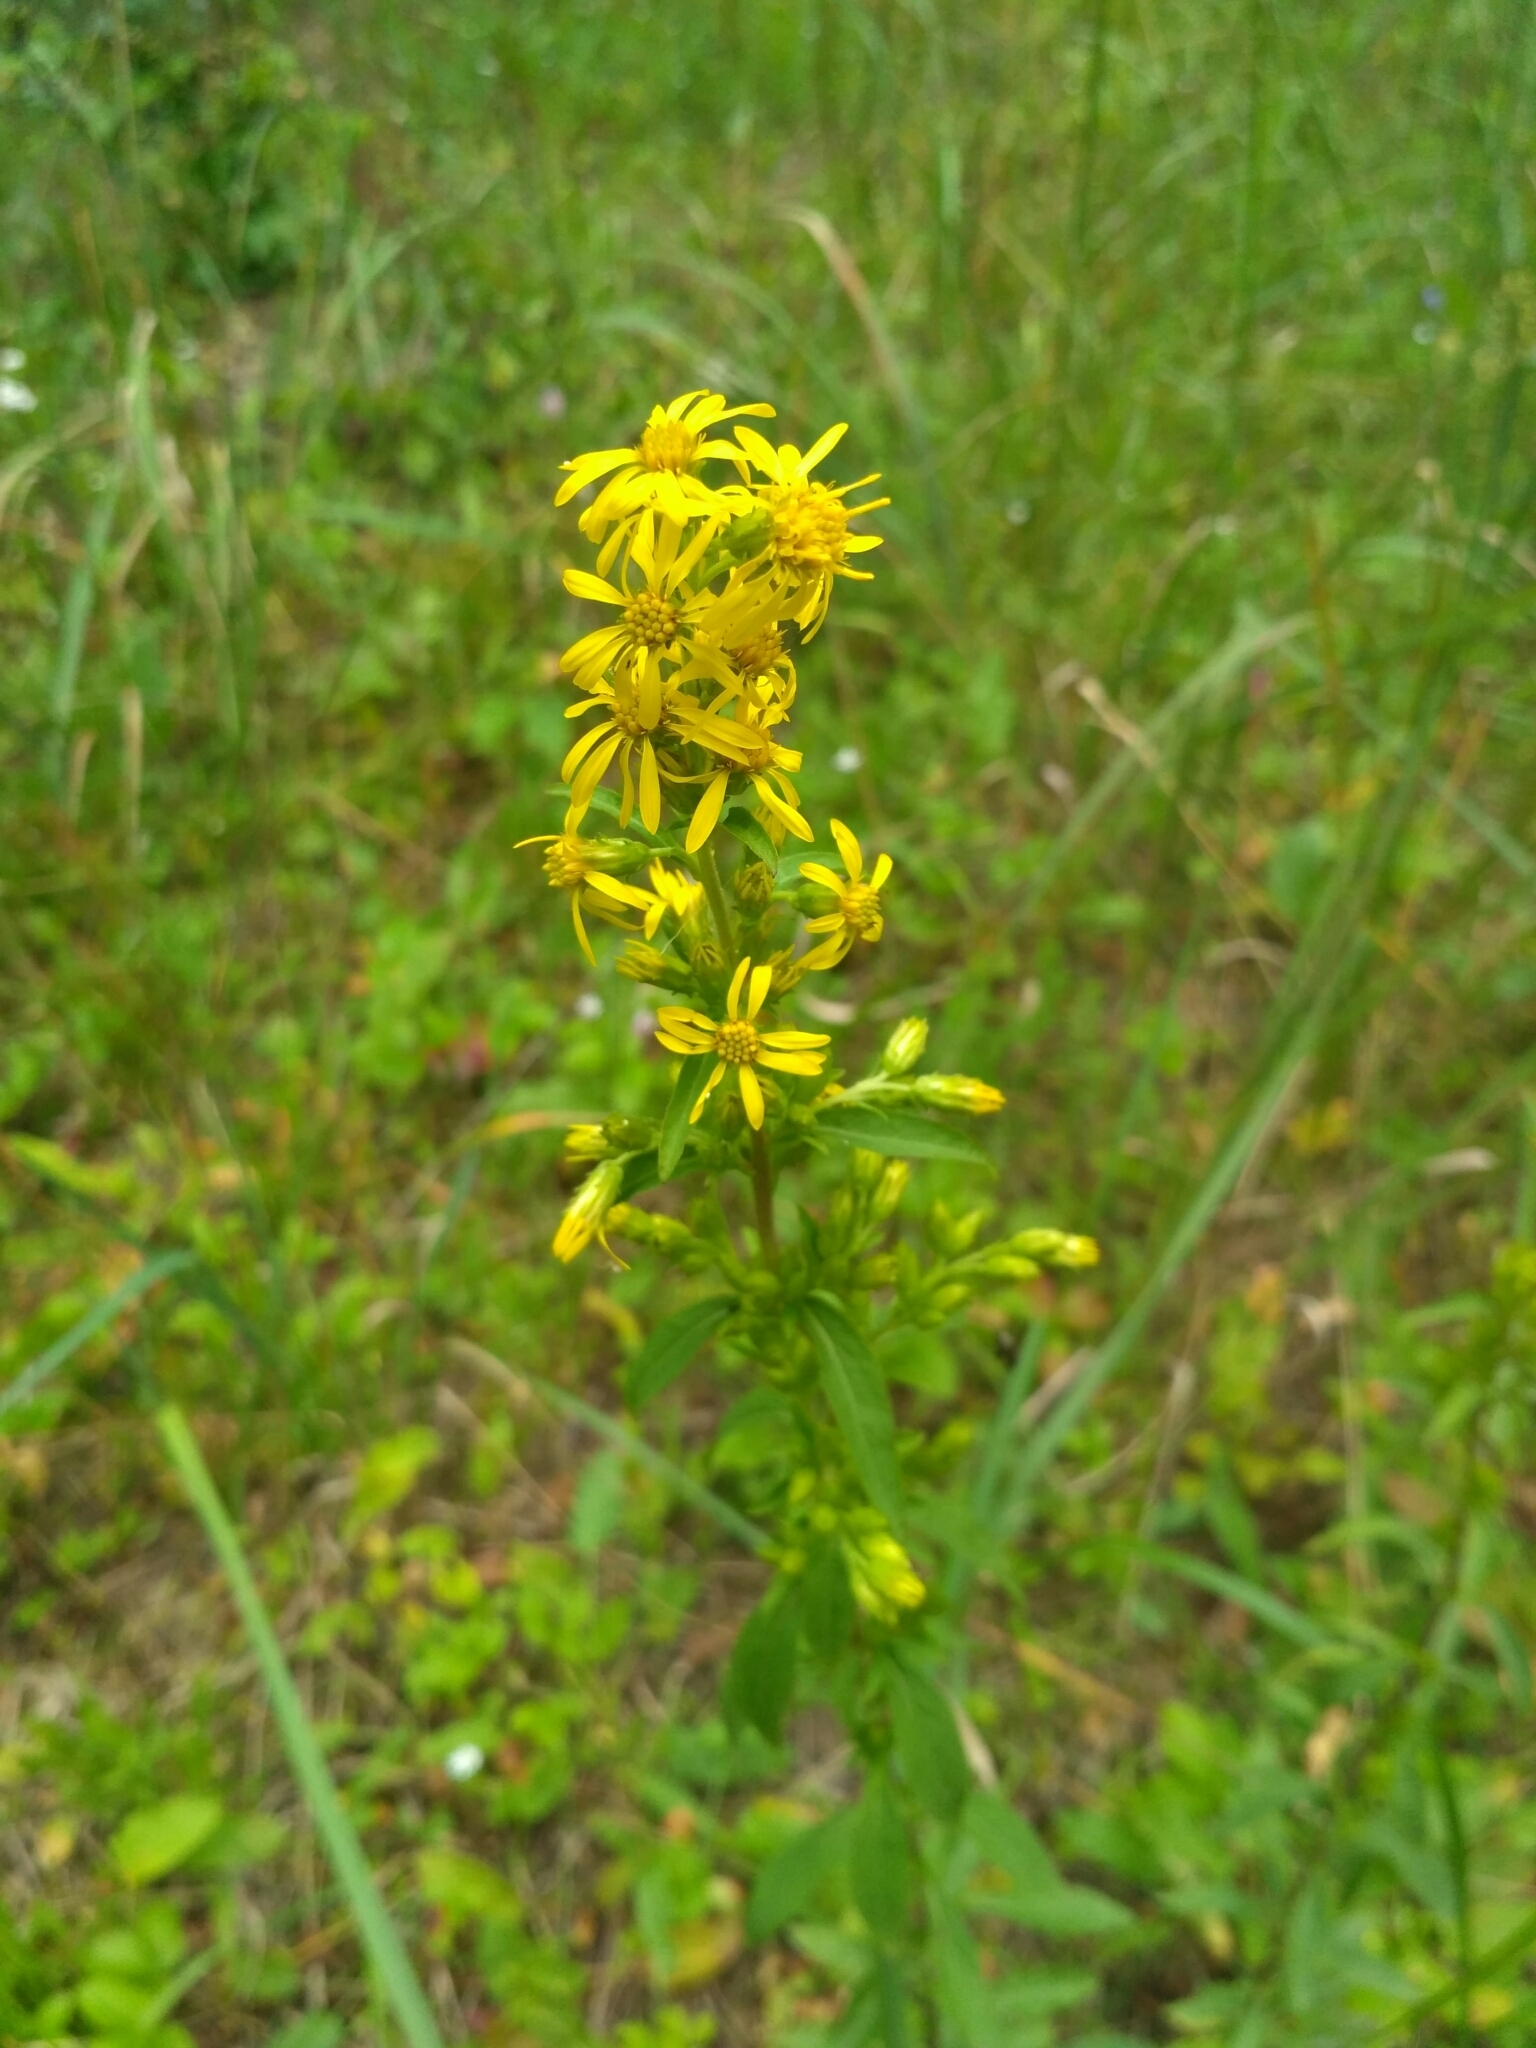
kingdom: Plantae
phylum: Tracheophyta
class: Magnoliopsida
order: Asterales
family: Asteraceae
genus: Solidago
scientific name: Solidago virgaurea
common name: Goldenrod
